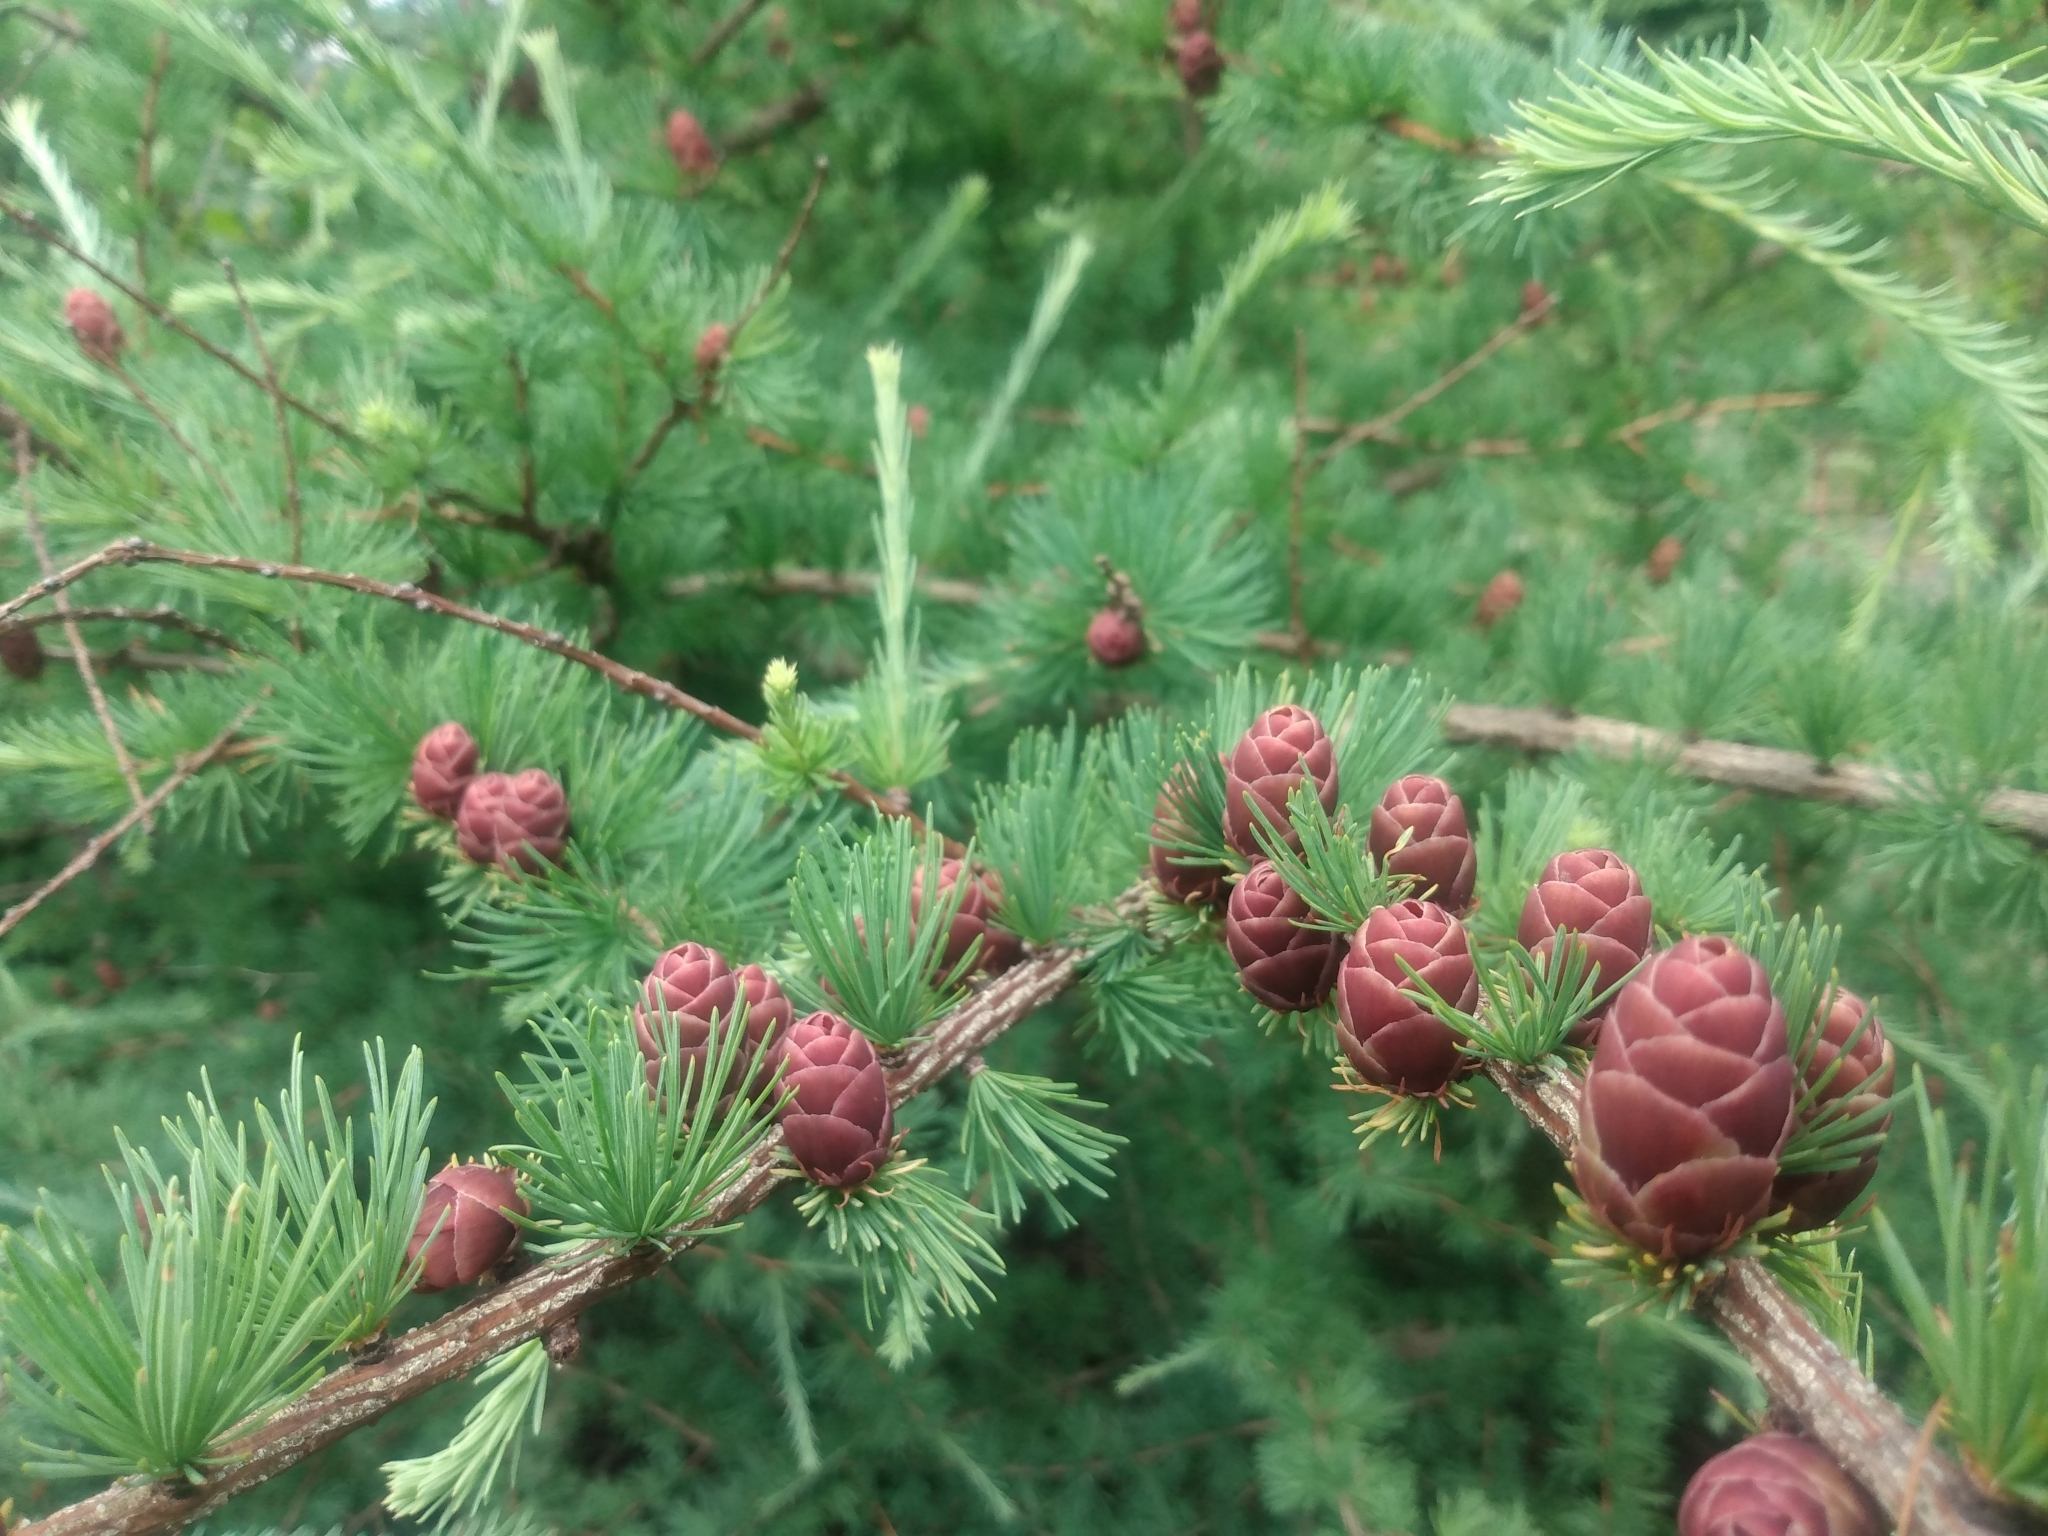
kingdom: Plantae
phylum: Tracheophyta
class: Pinopsida
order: Pinales
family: Pinaceae
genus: Larix
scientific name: Larix laricina
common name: American larch
